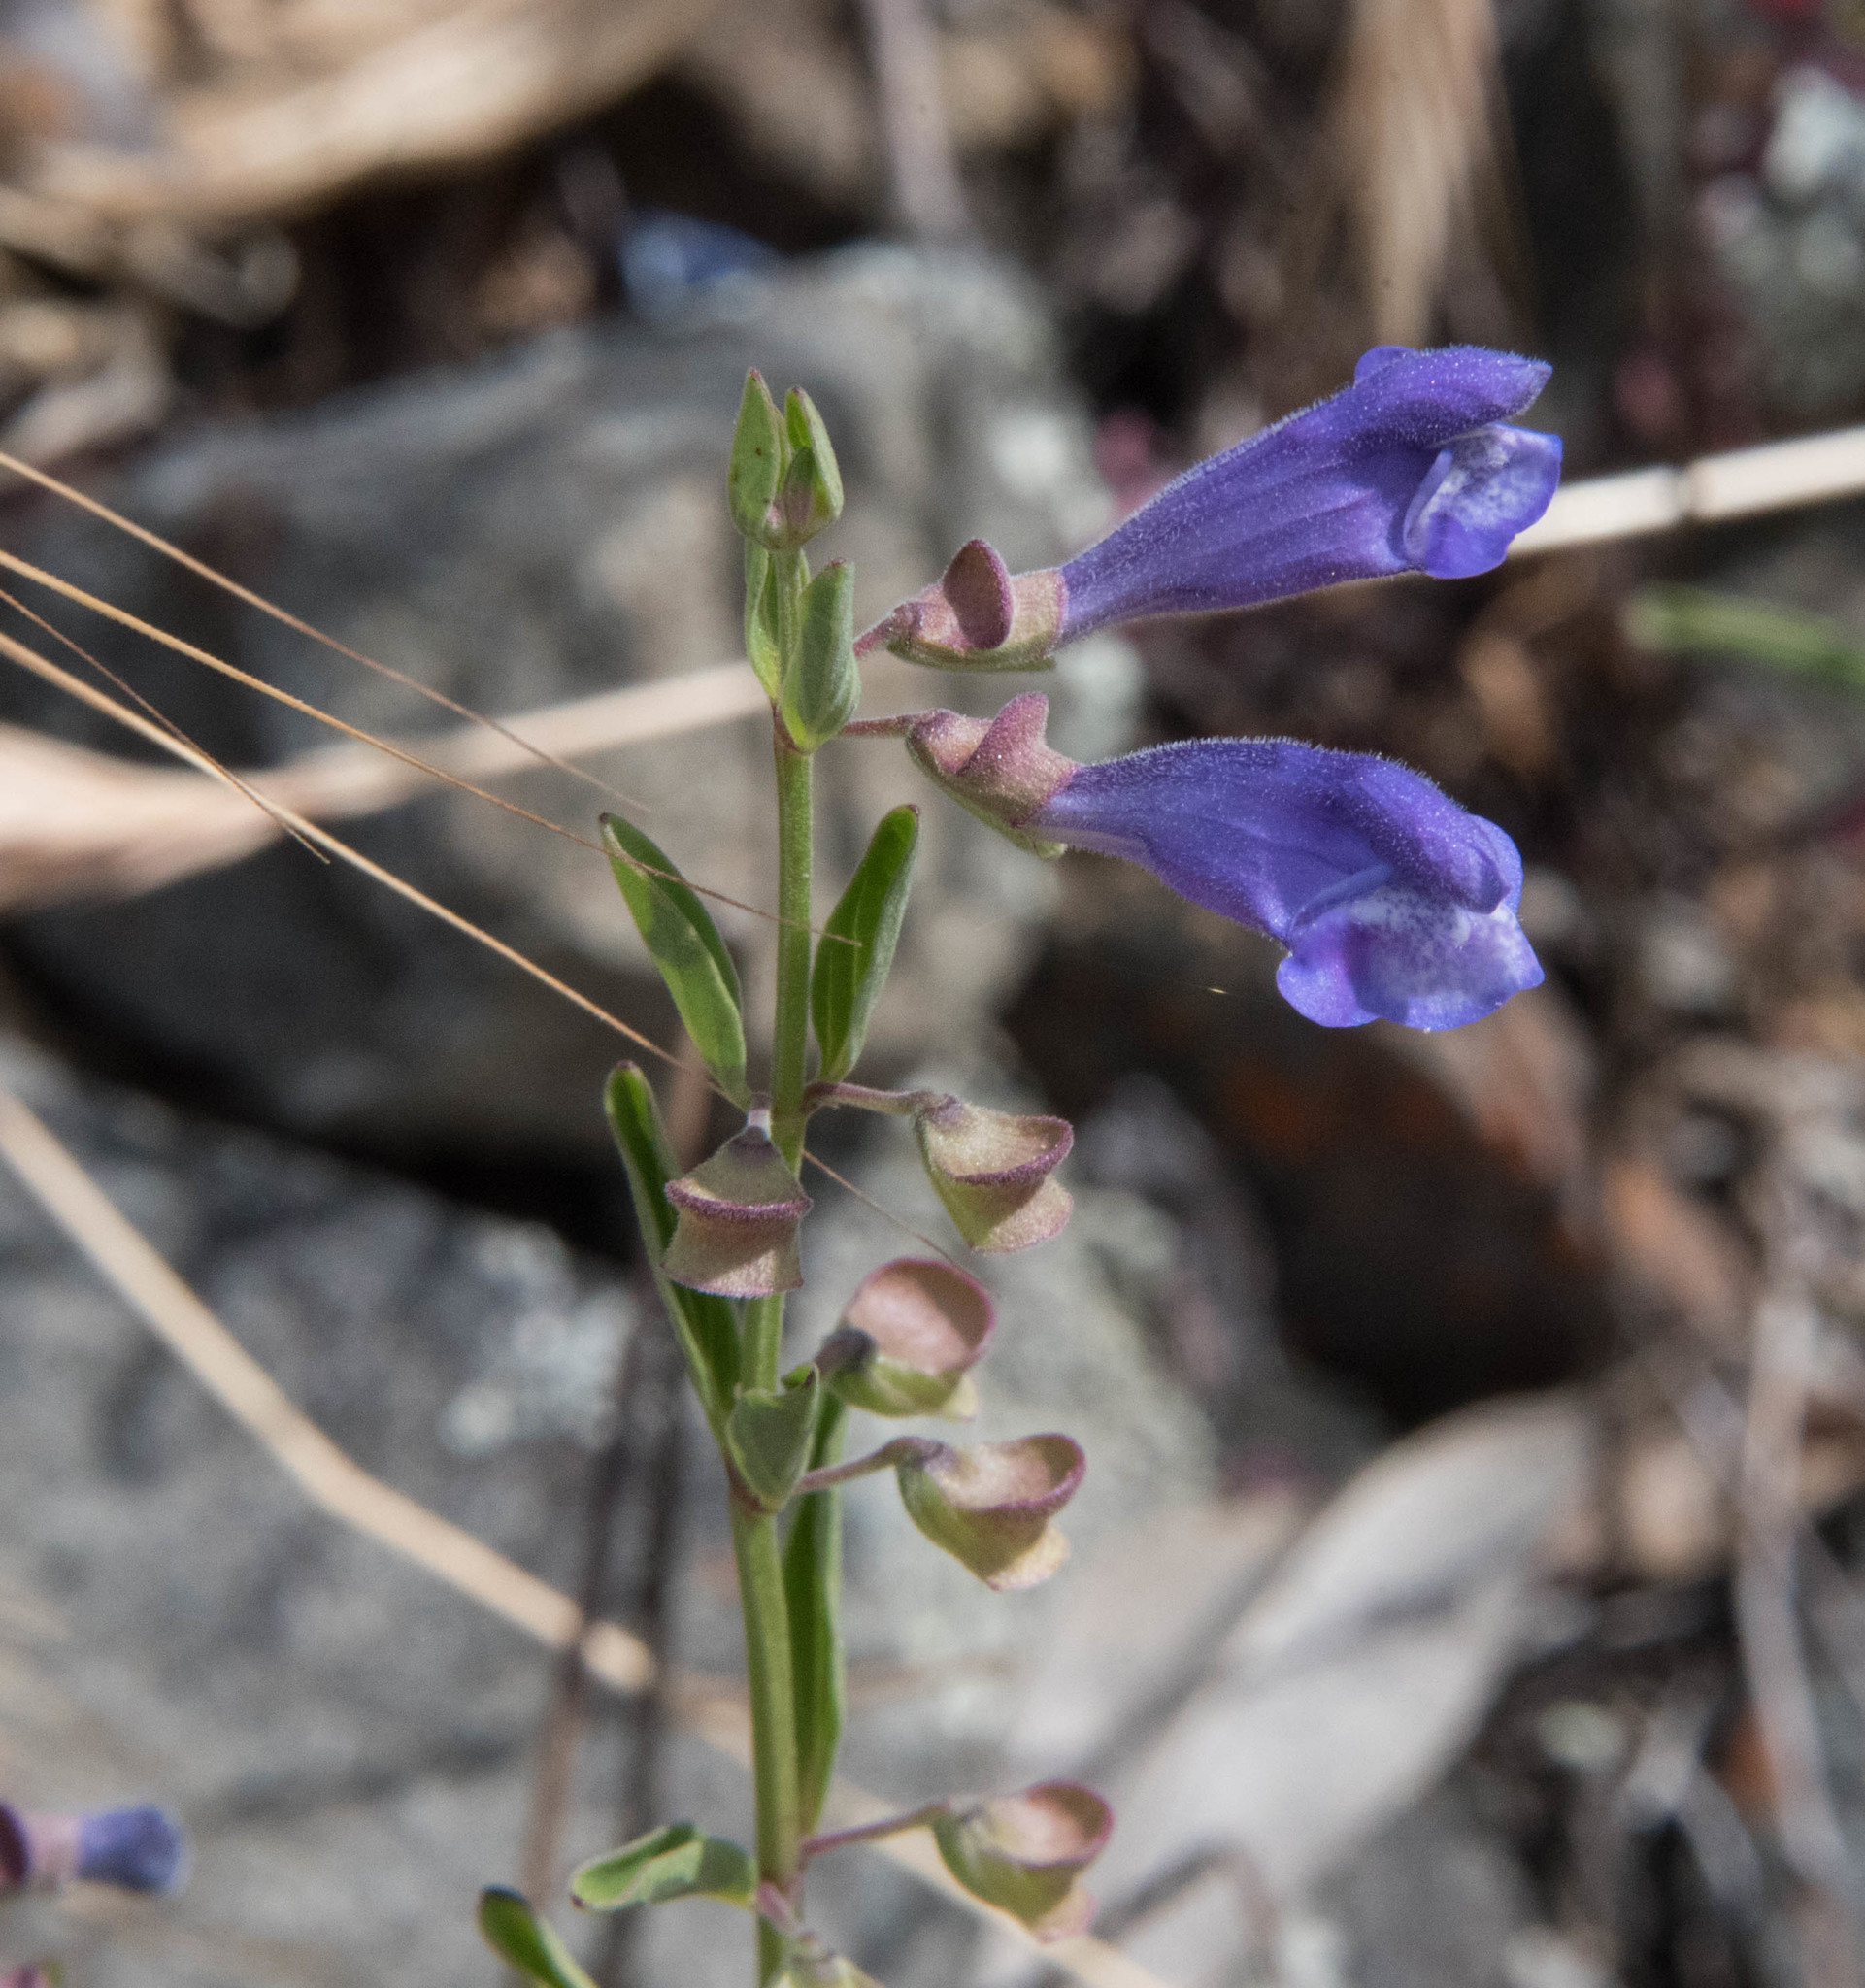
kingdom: Plantae
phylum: Tracheophyta
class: Magnoliopsida
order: Lamiales
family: Lamiaceae
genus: Scutellaria
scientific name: Scutellaria antirrhinoides
